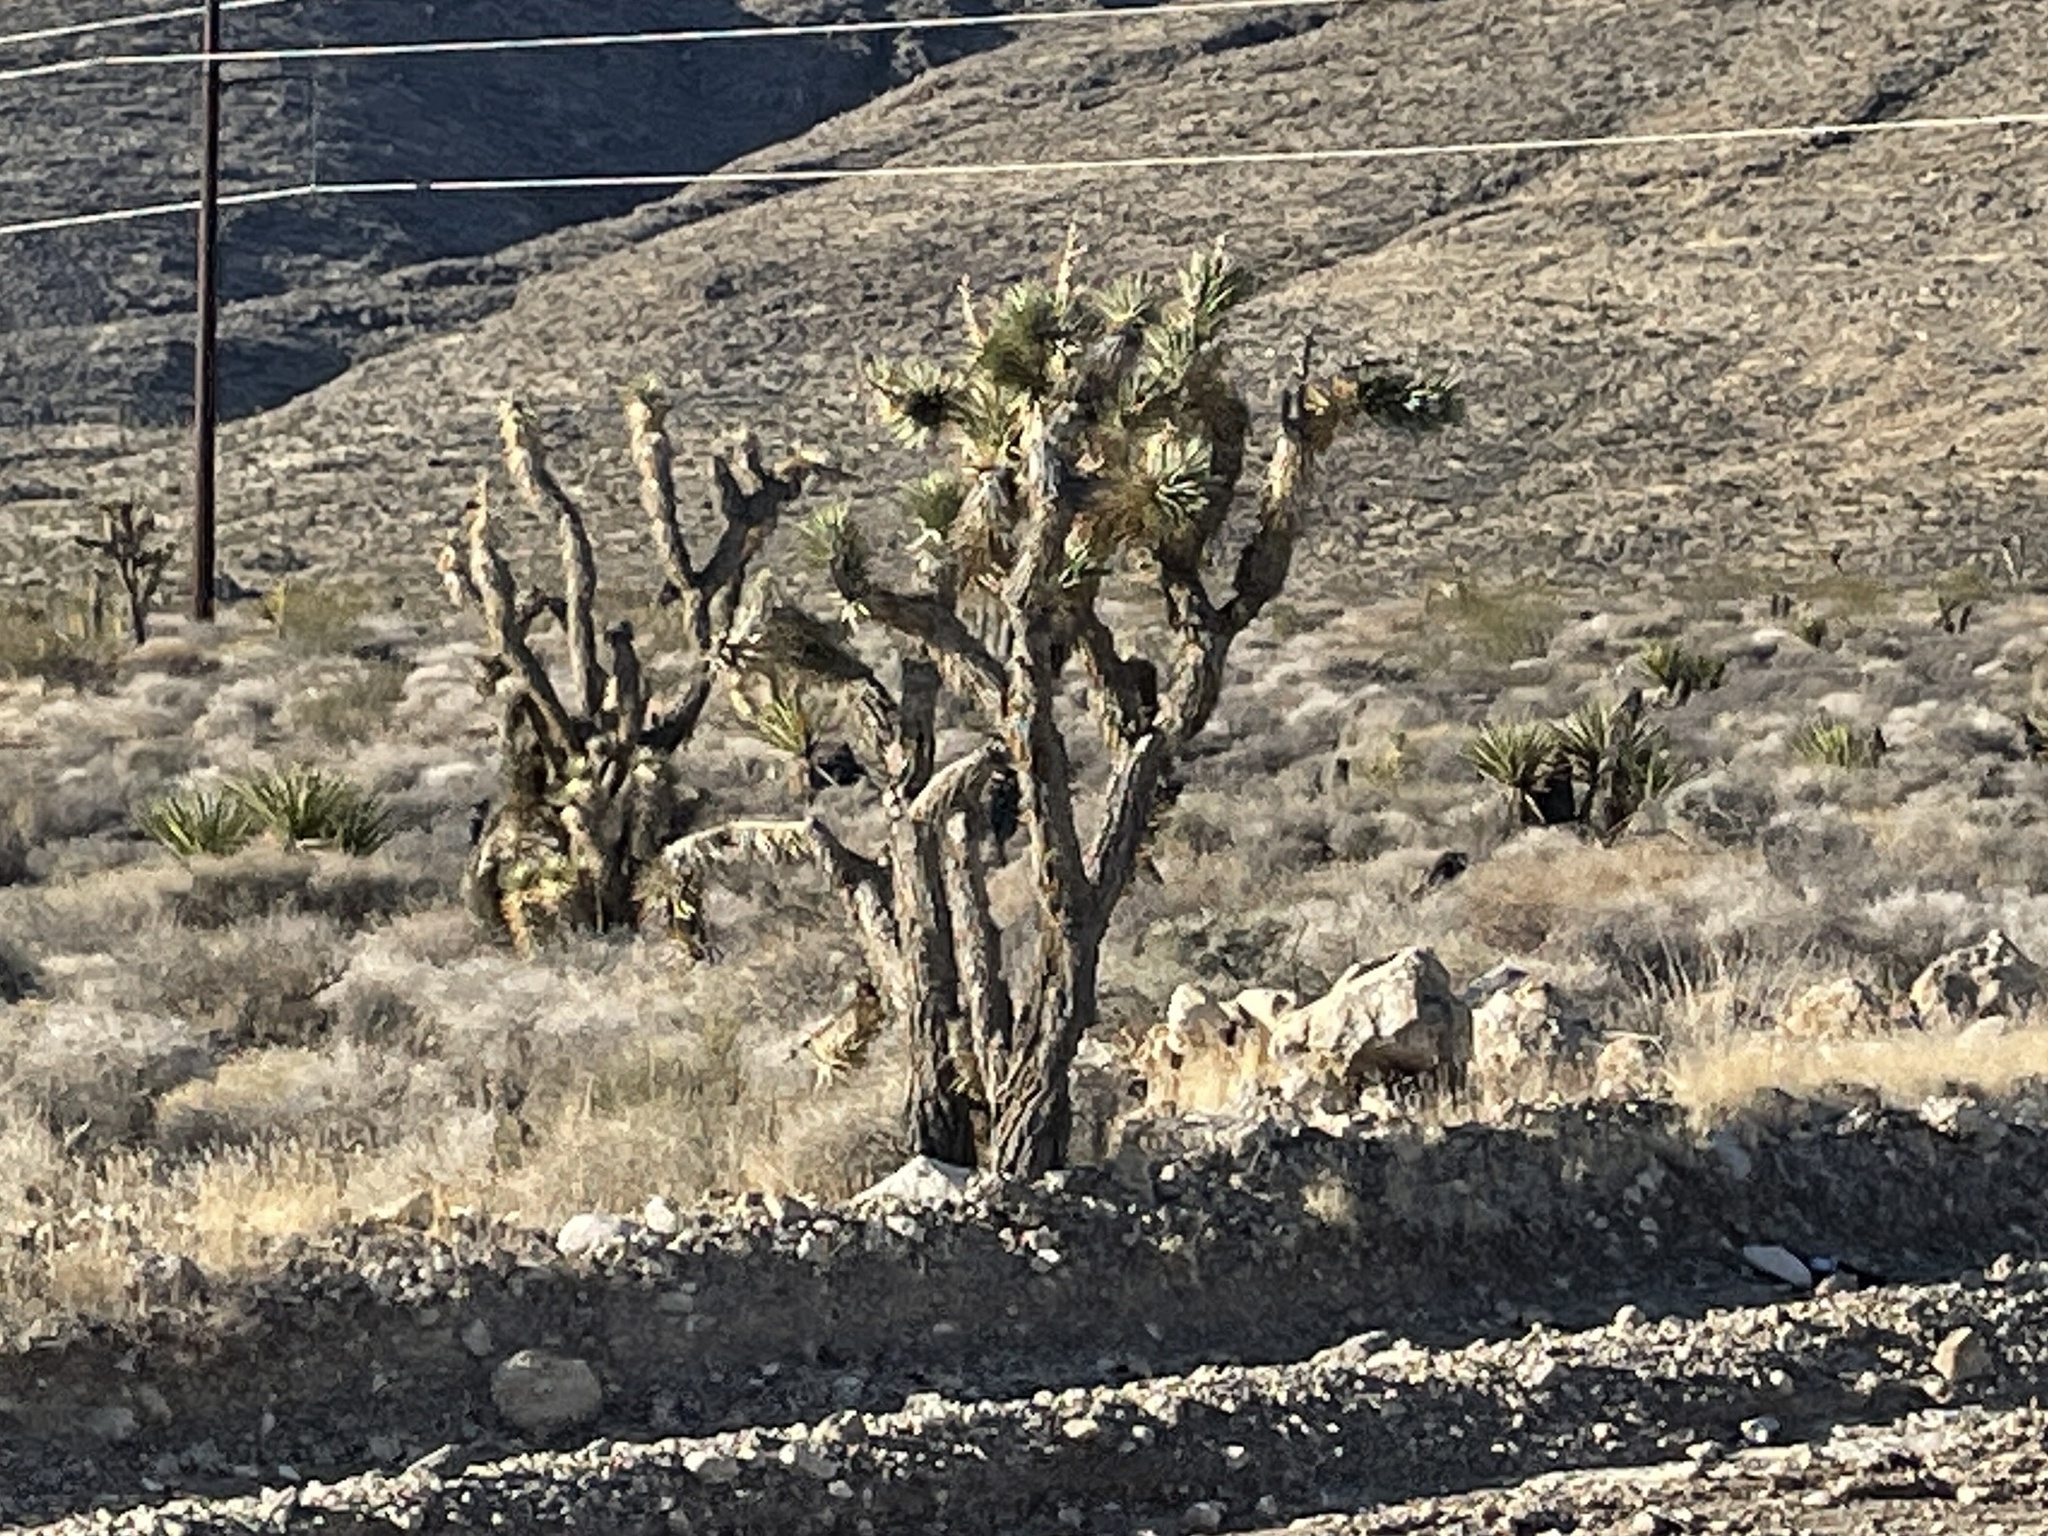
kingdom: Plantae
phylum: Tracheophyta
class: Liliopsida
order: Asparagales
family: Asparagaceae
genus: Yucca
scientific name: Yucca brevifolia
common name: Joshua tree
